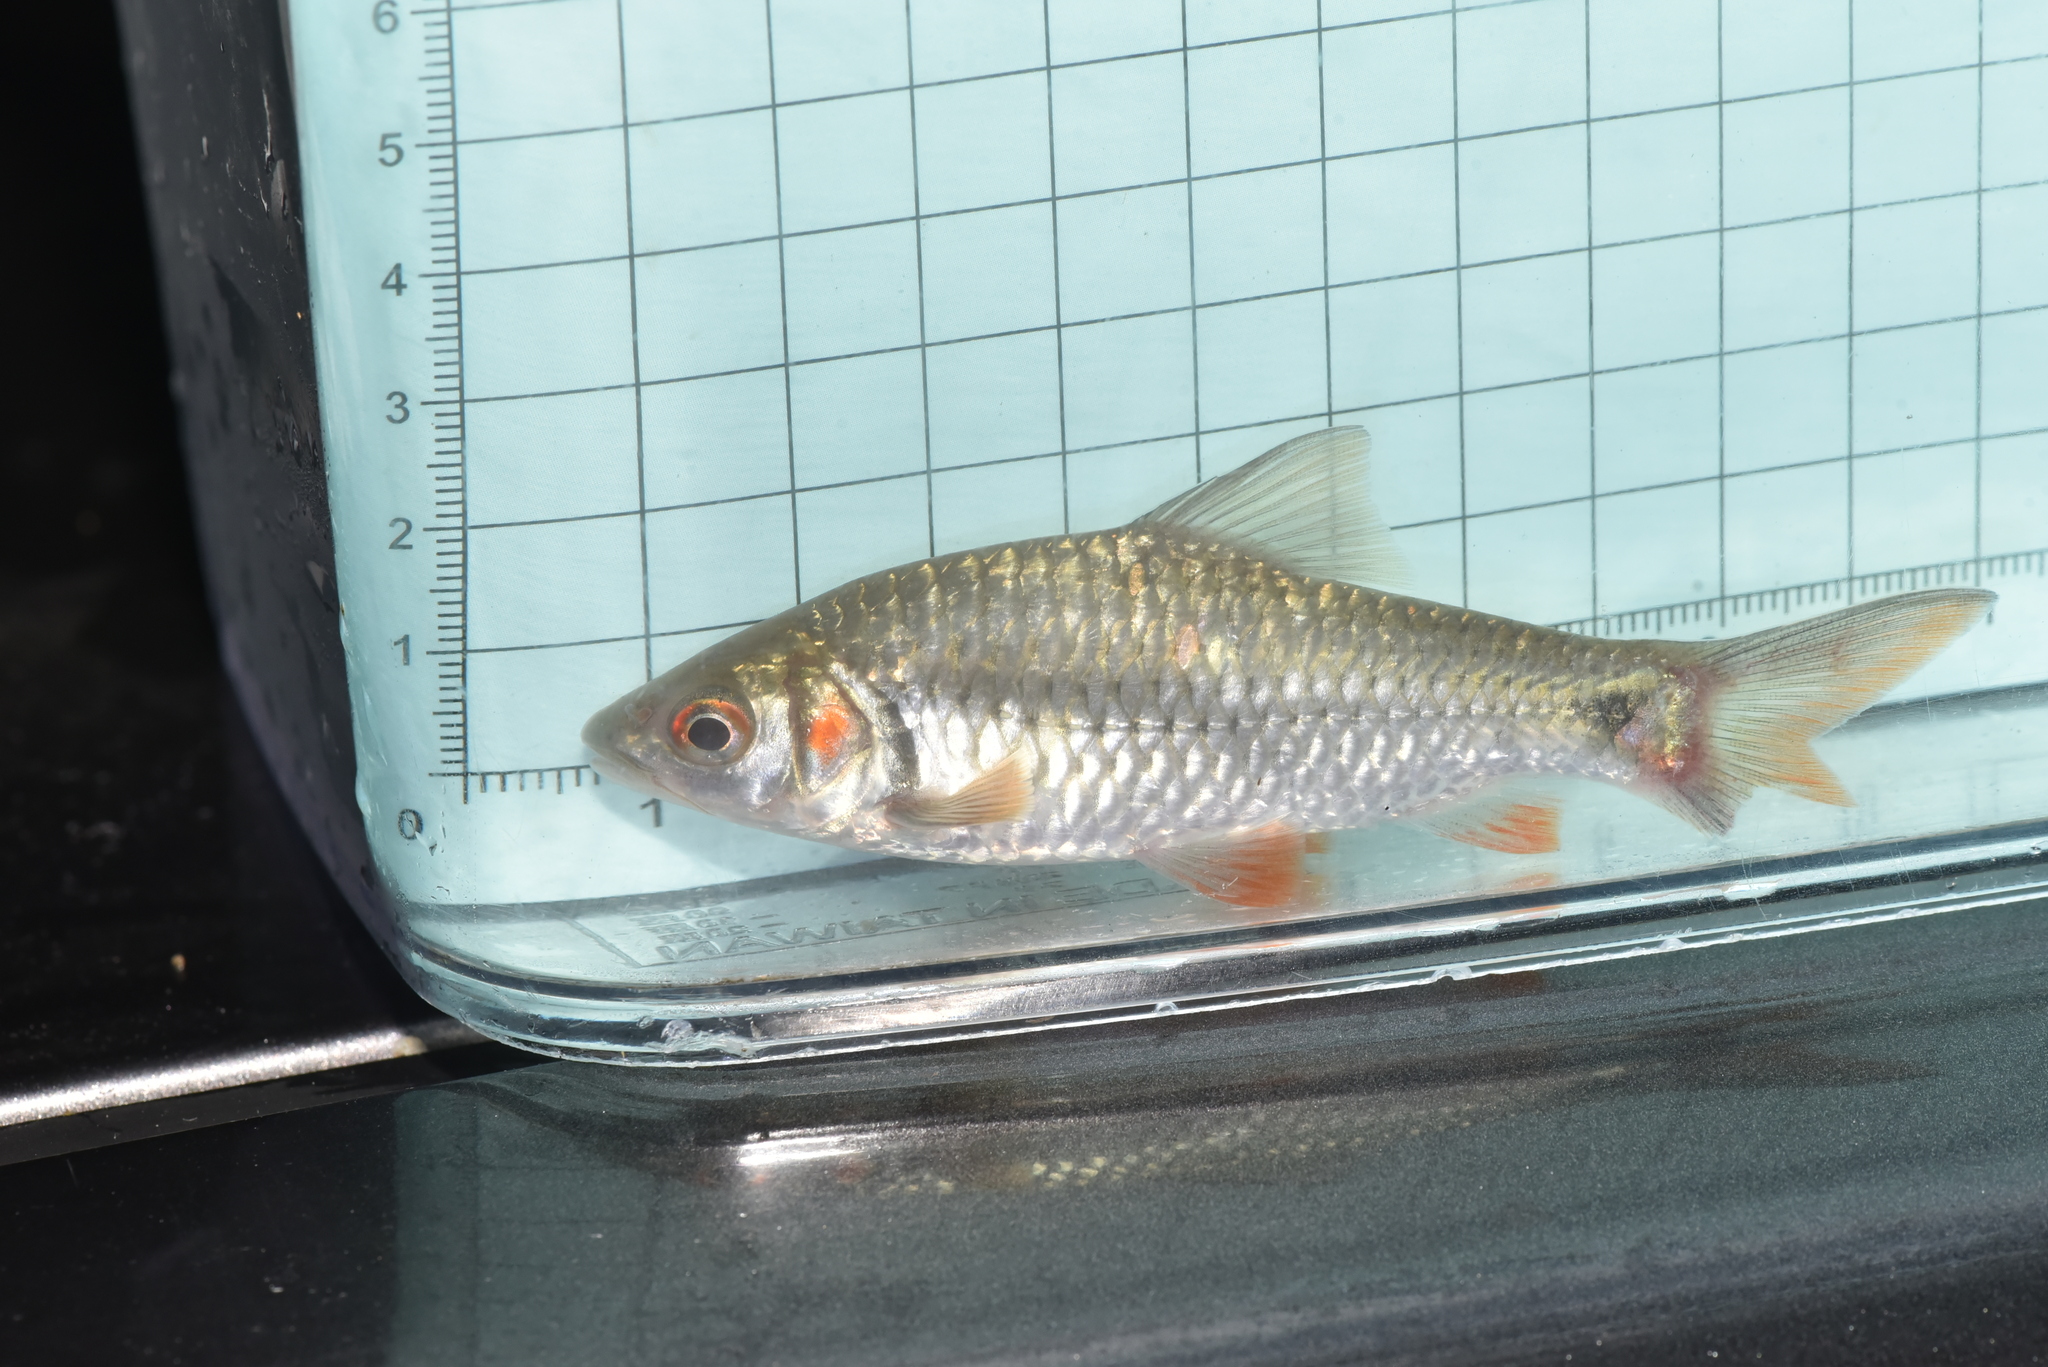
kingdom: Animalia
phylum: Chordata
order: Cypriniformes
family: Cyprinidae
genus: Systomus
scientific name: Systomus orphoides
